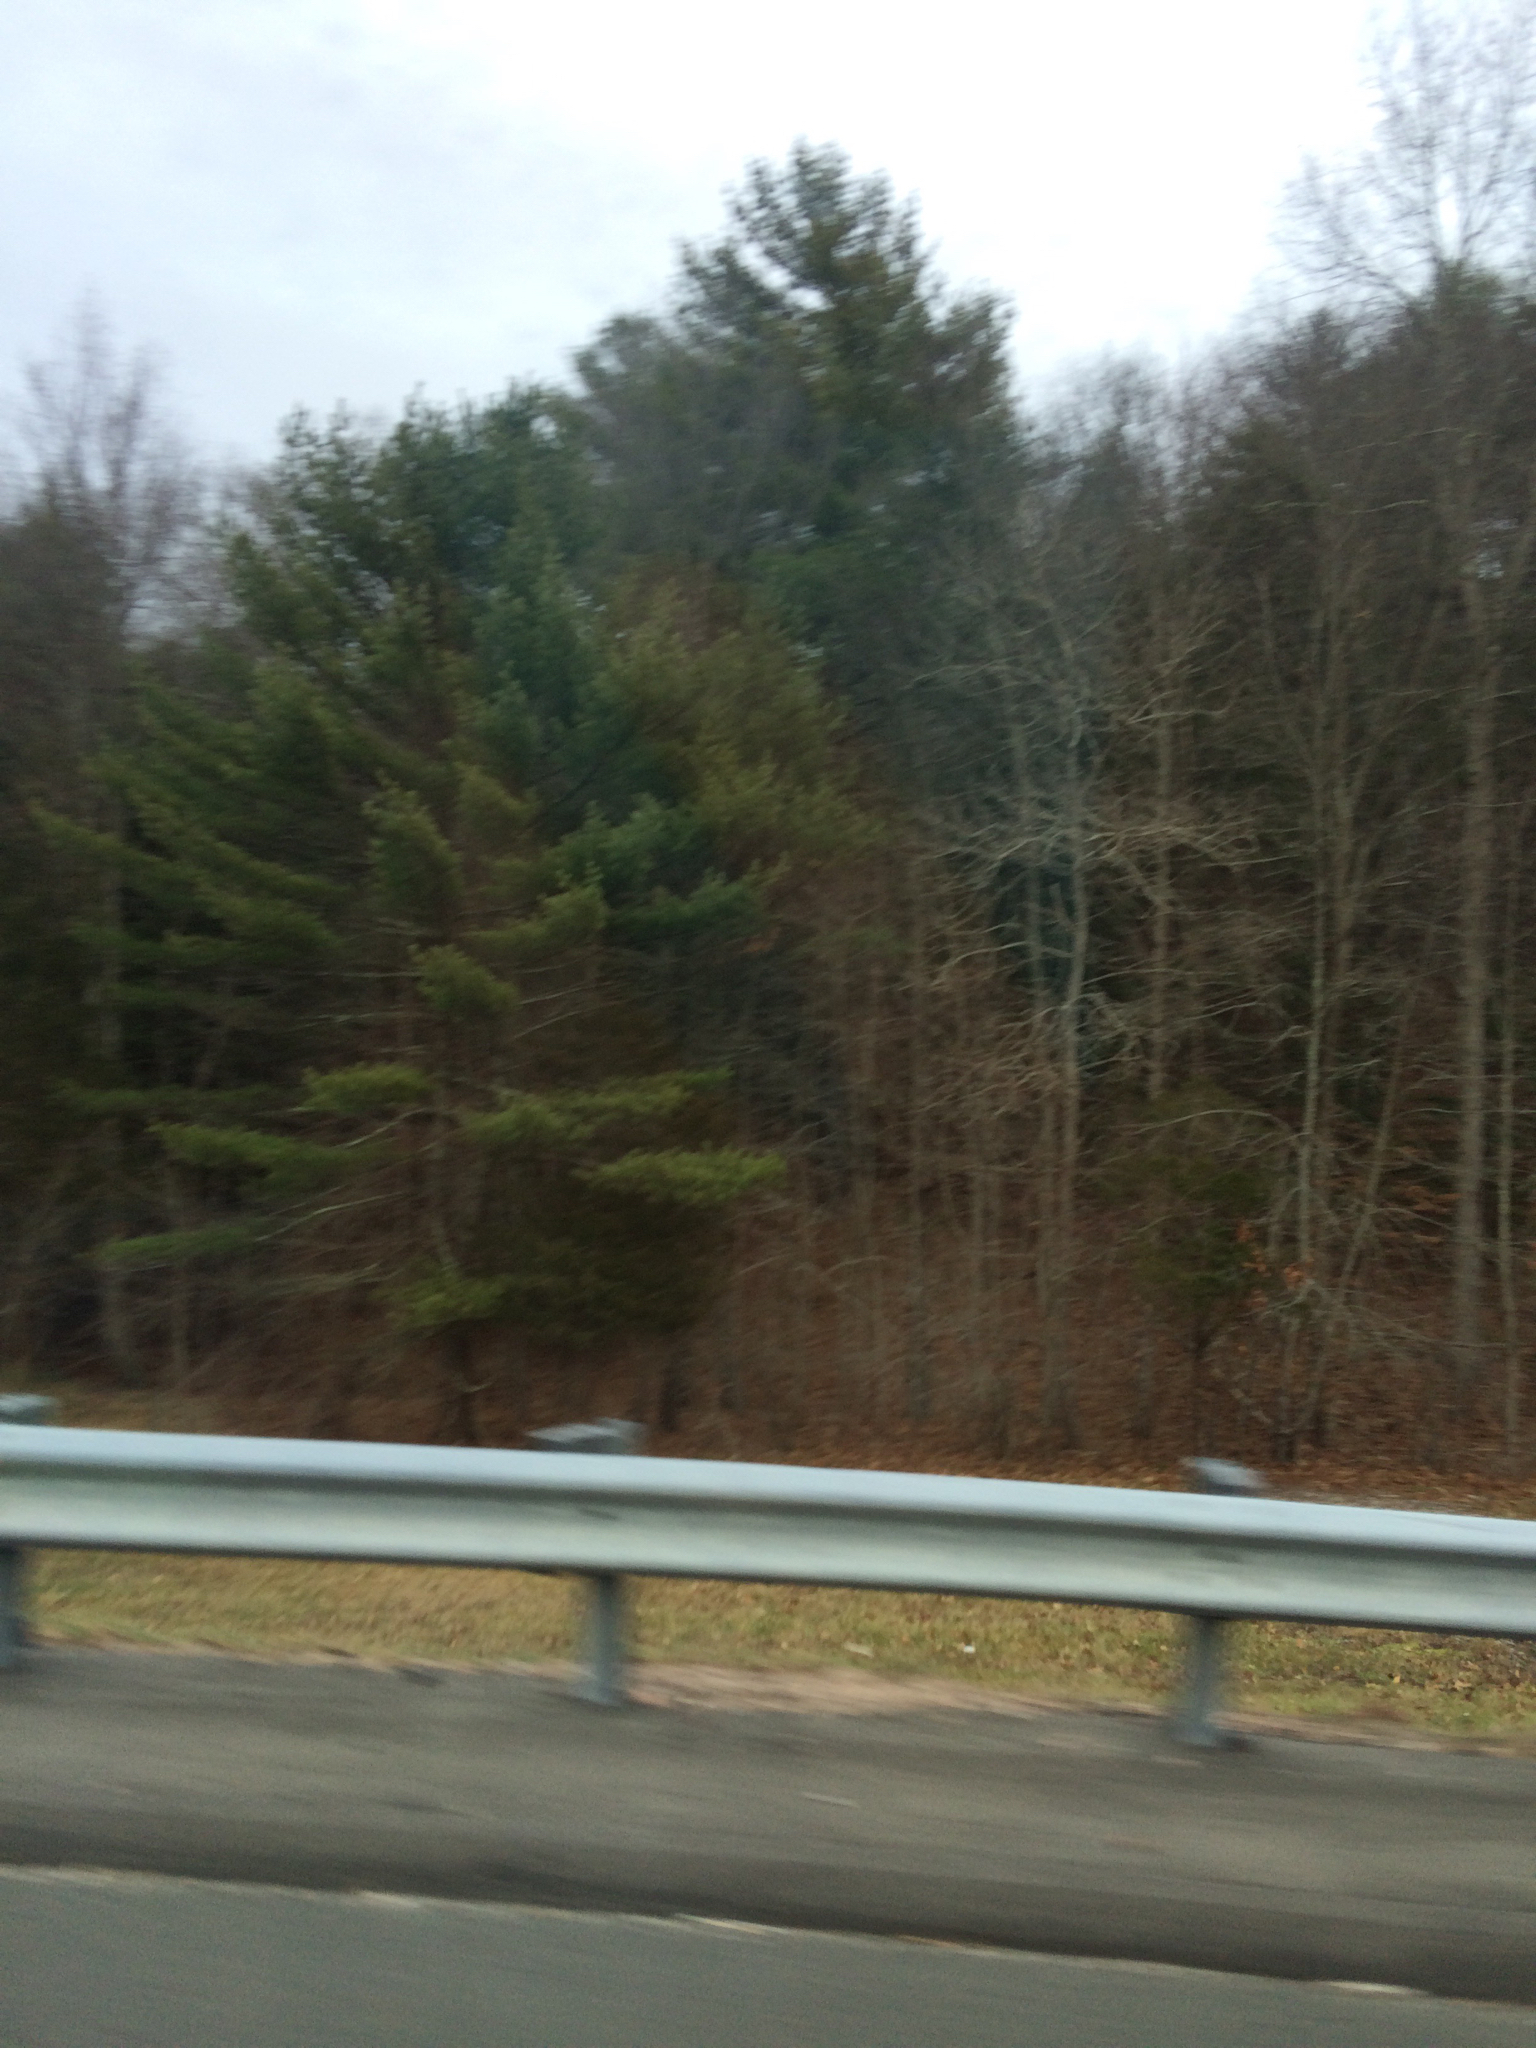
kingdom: Plantae
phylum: Tracheophyta
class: Pinopsida
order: Pinales
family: Pinaceae
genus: Pinus
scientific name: Pinus strobus
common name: Weymouth pine
